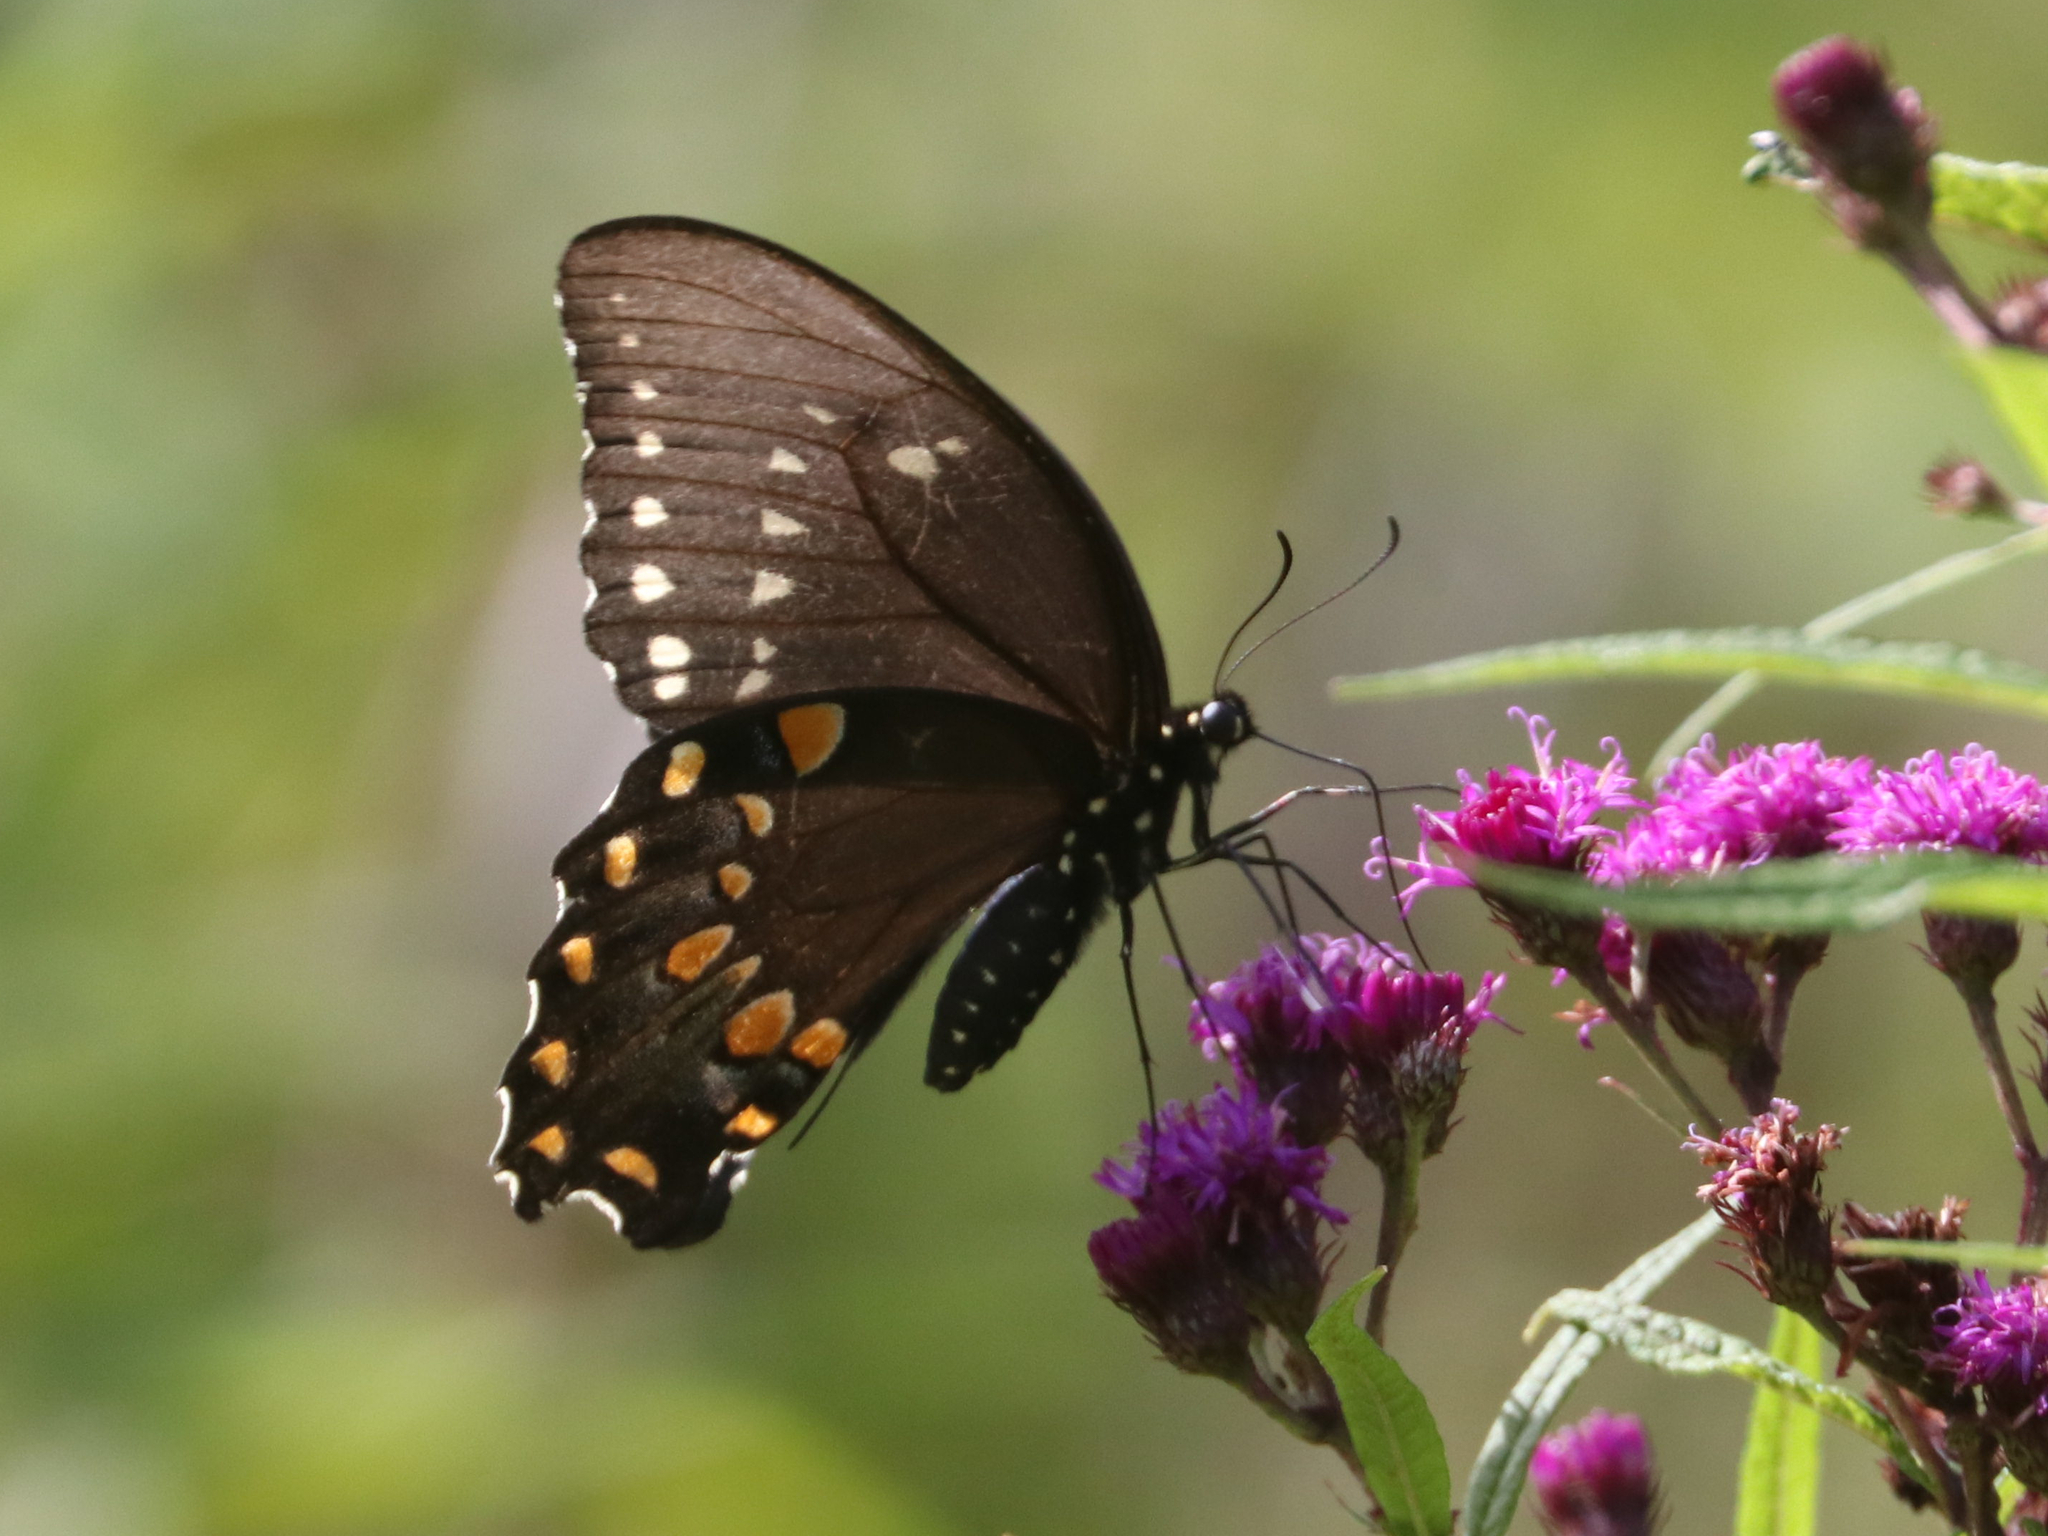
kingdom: Animalia
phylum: Arthropoda
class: Insecta
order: Lepidoptera
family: Papilionidae
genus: Papilio
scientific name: Papilio troilus
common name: Spicebush swallowtail
